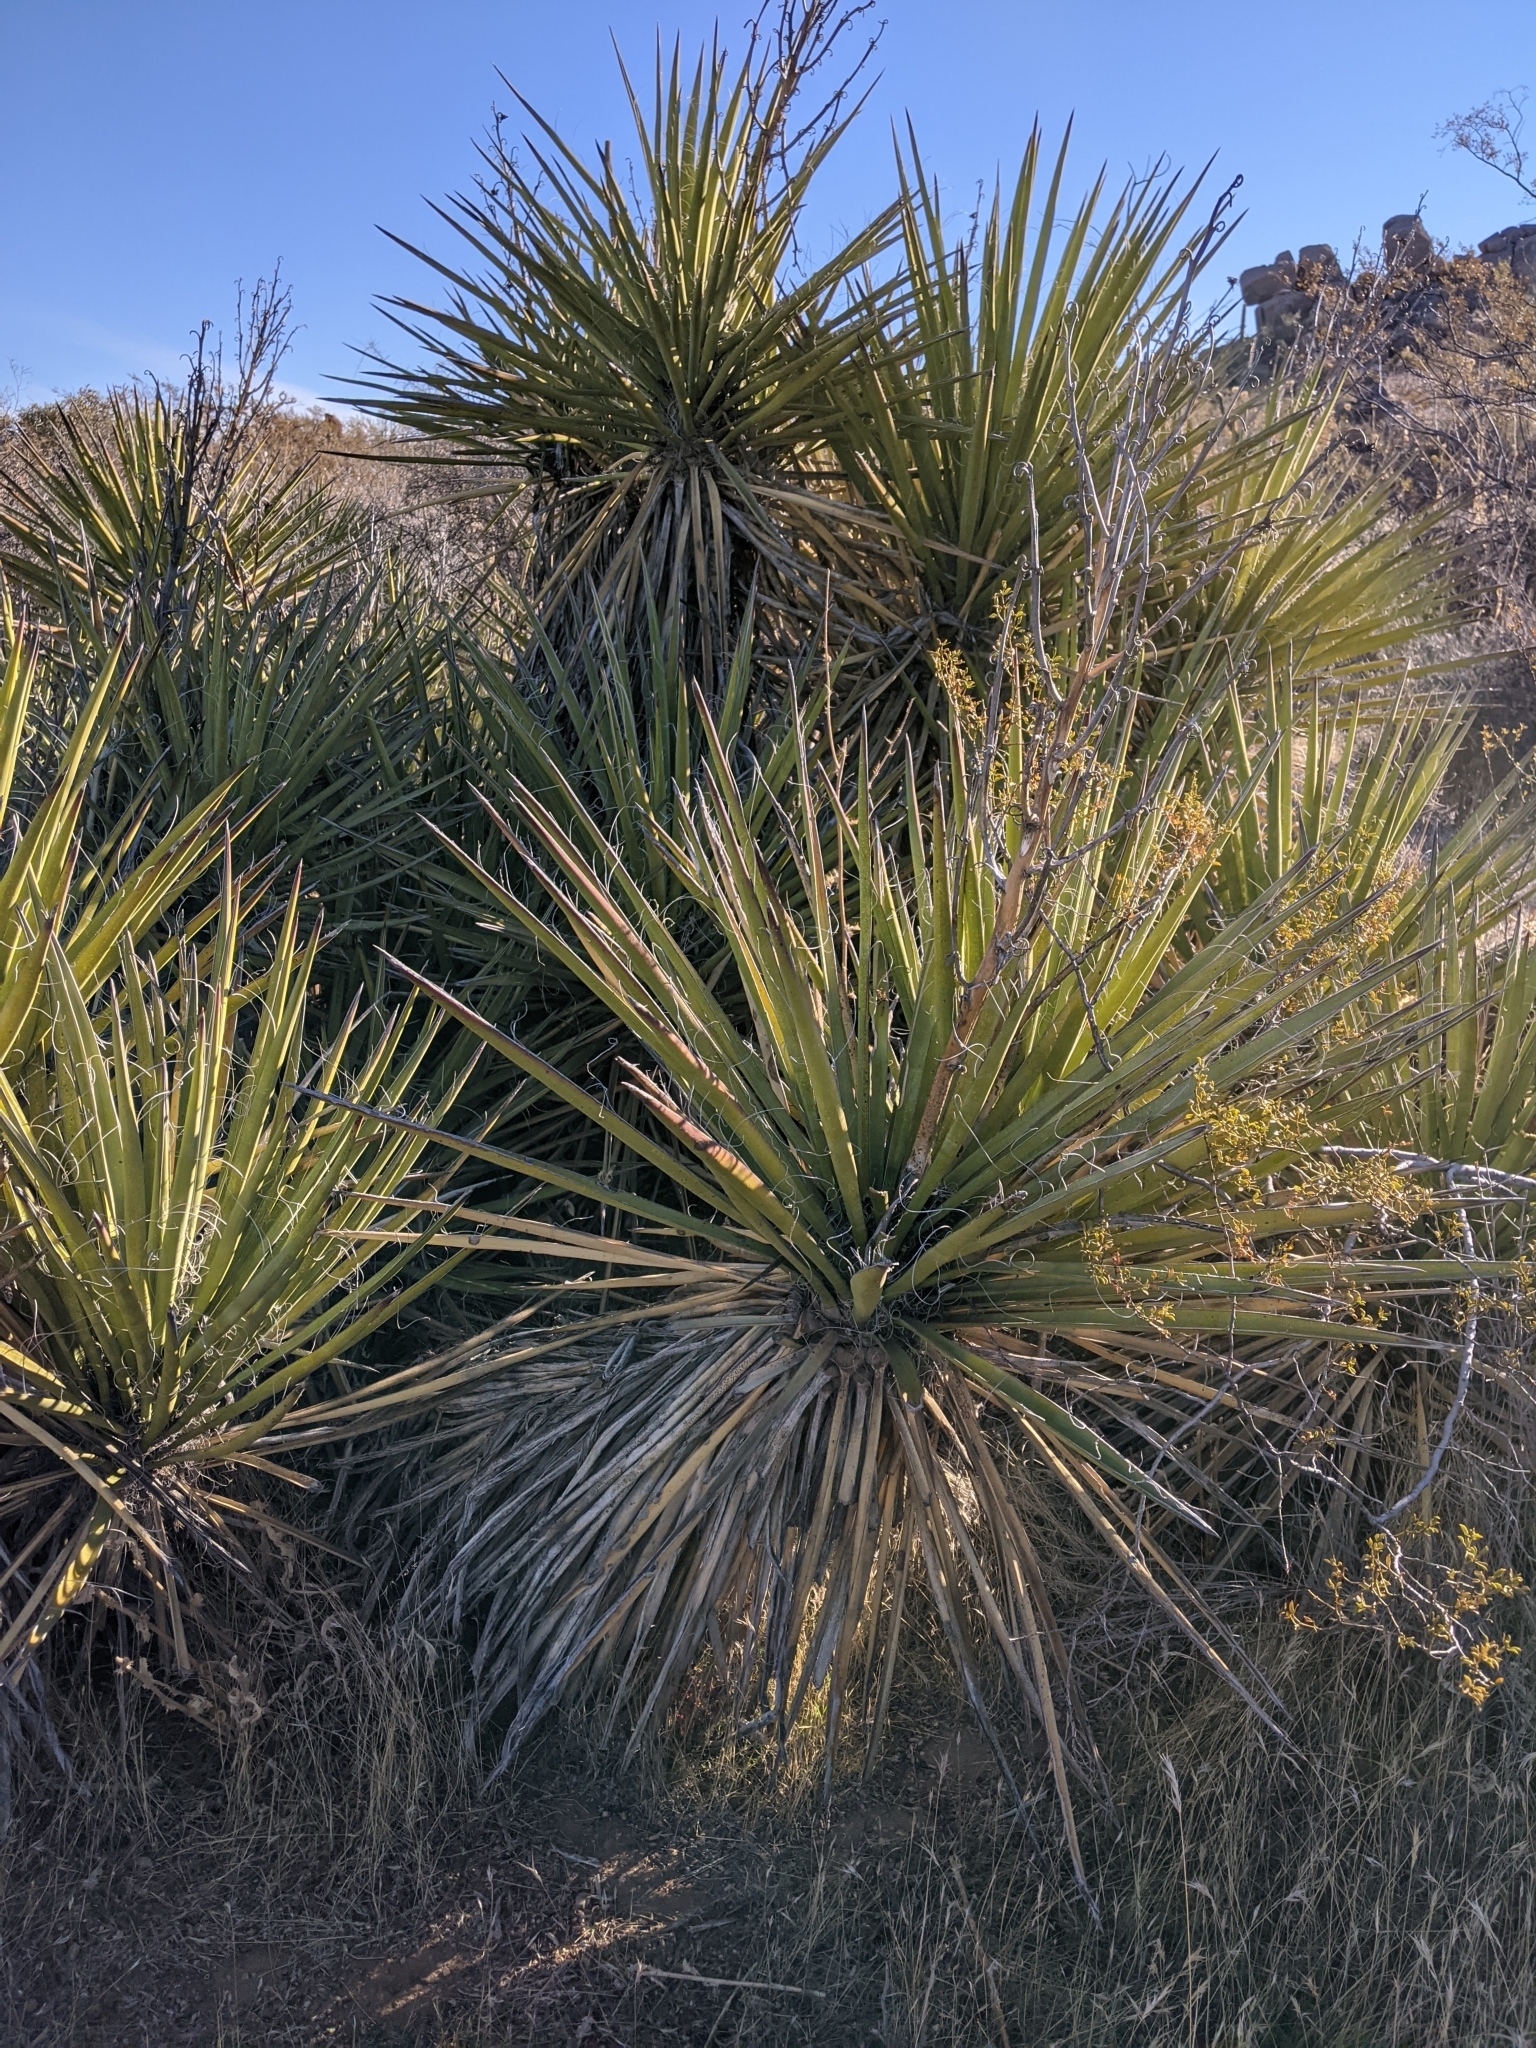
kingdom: Plantae
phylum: Tracheophyta
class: Liliopsida
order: Asparagales
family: Asparagaceae
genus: Yucca
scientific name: Yucca baccata
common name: Banana yucca
